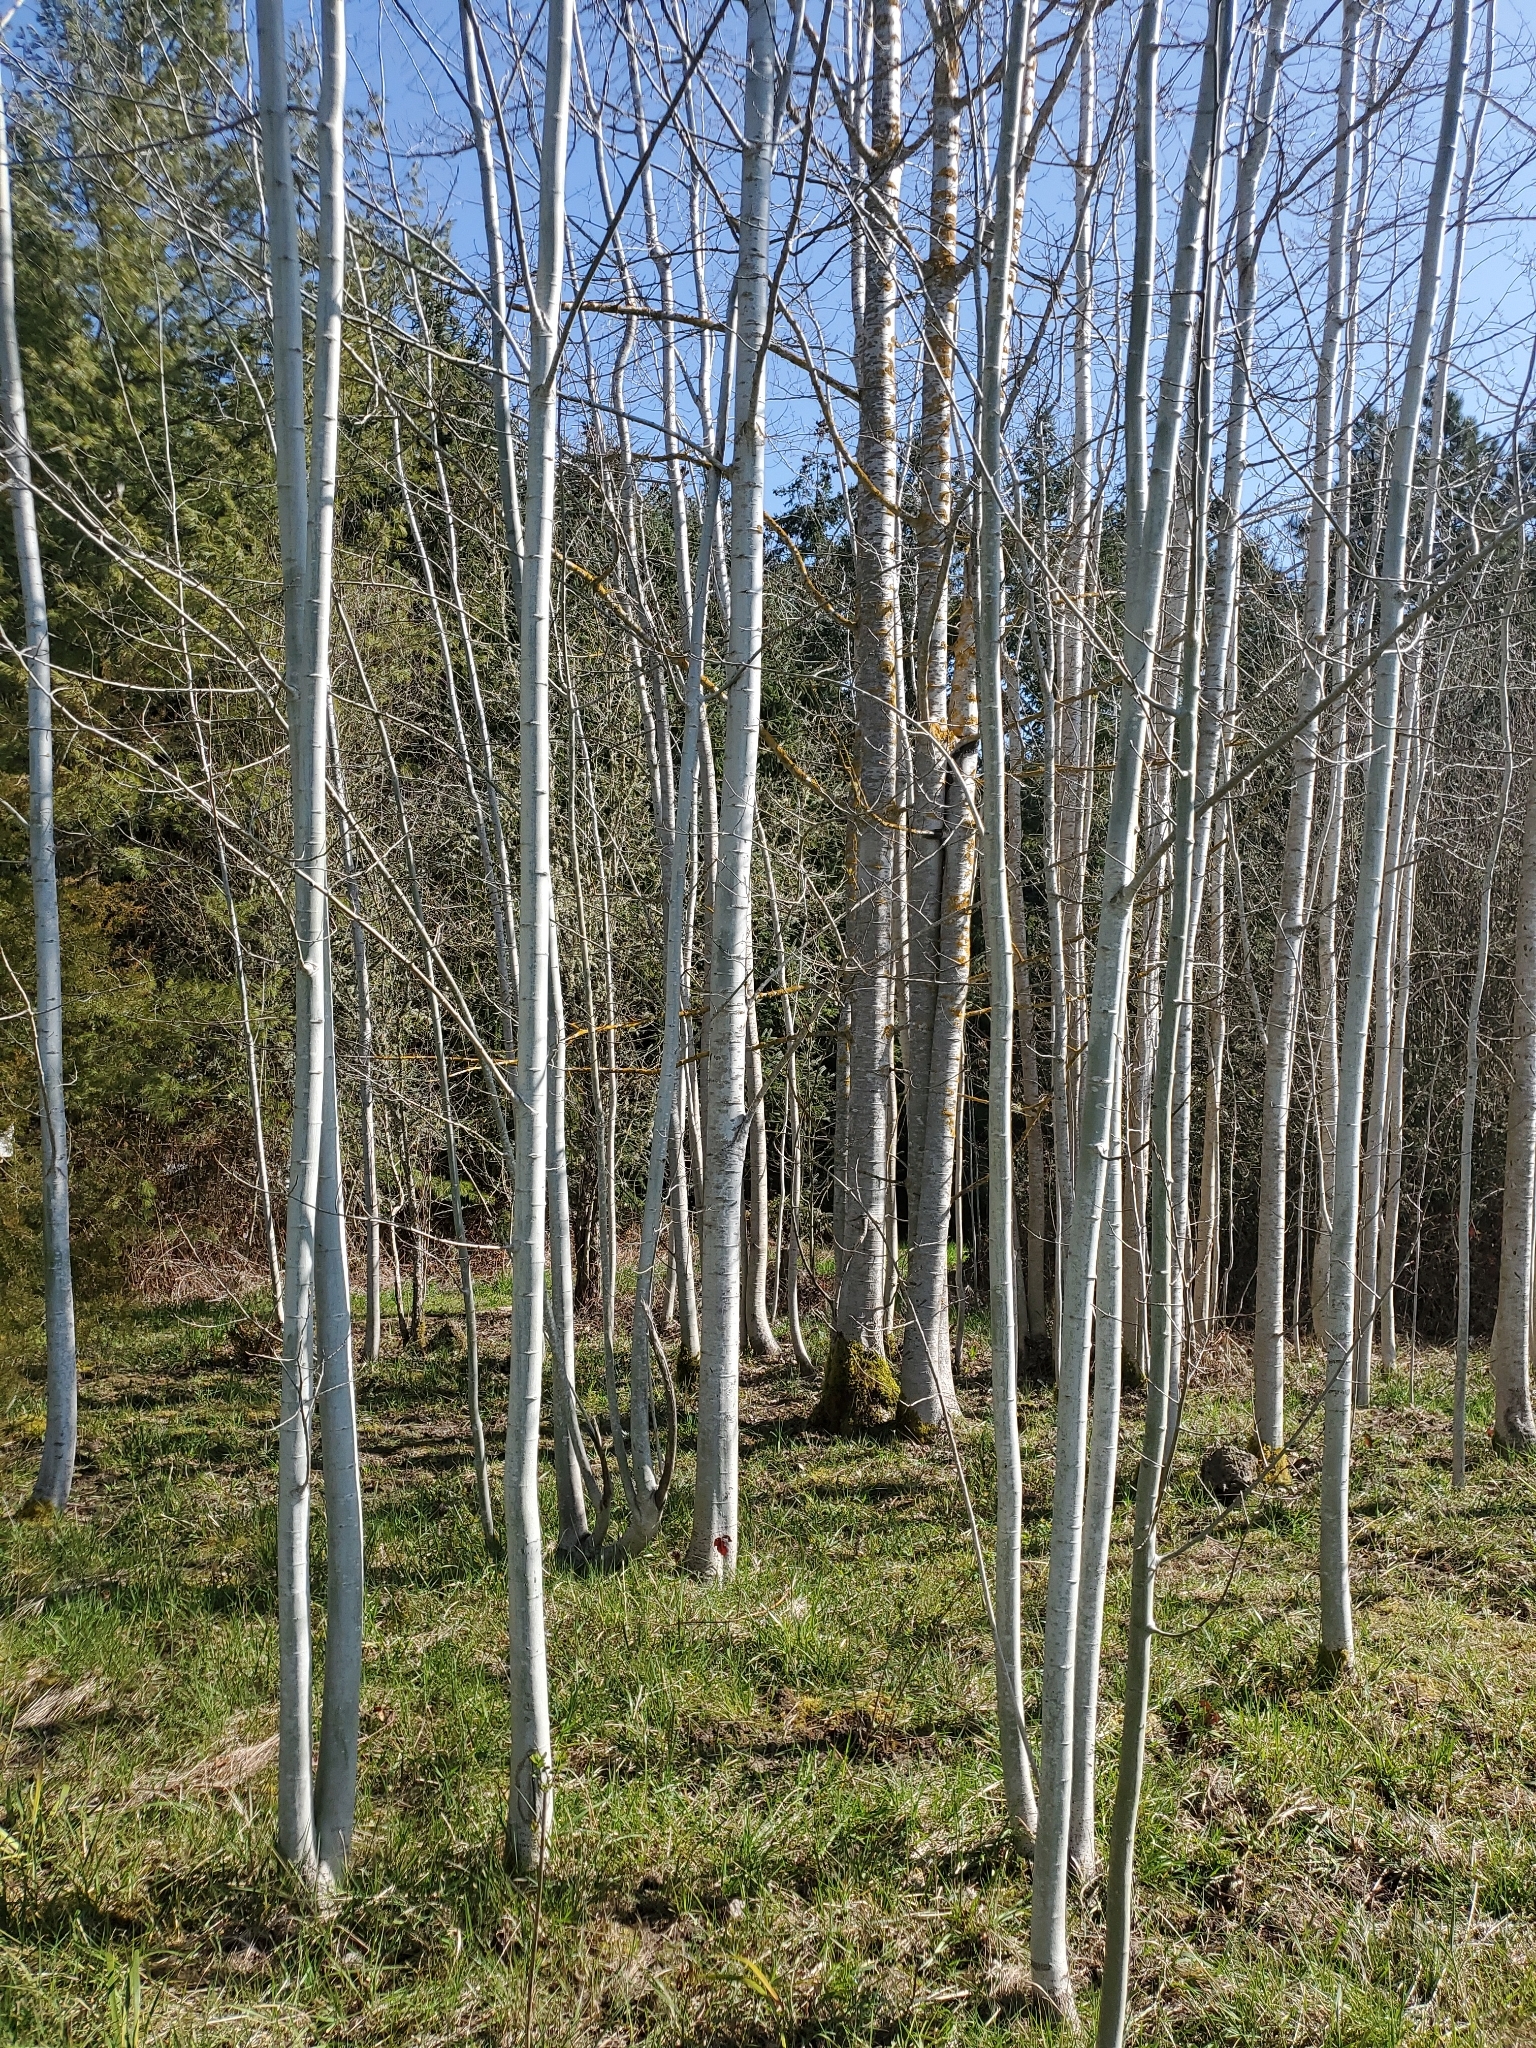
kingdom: Plantae
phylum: Tracheophyta
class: Magnoliopsida
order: Malpighiales
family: Salicaceae
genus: Populus
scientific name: Populus tremuloides
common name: Quaking aspen
